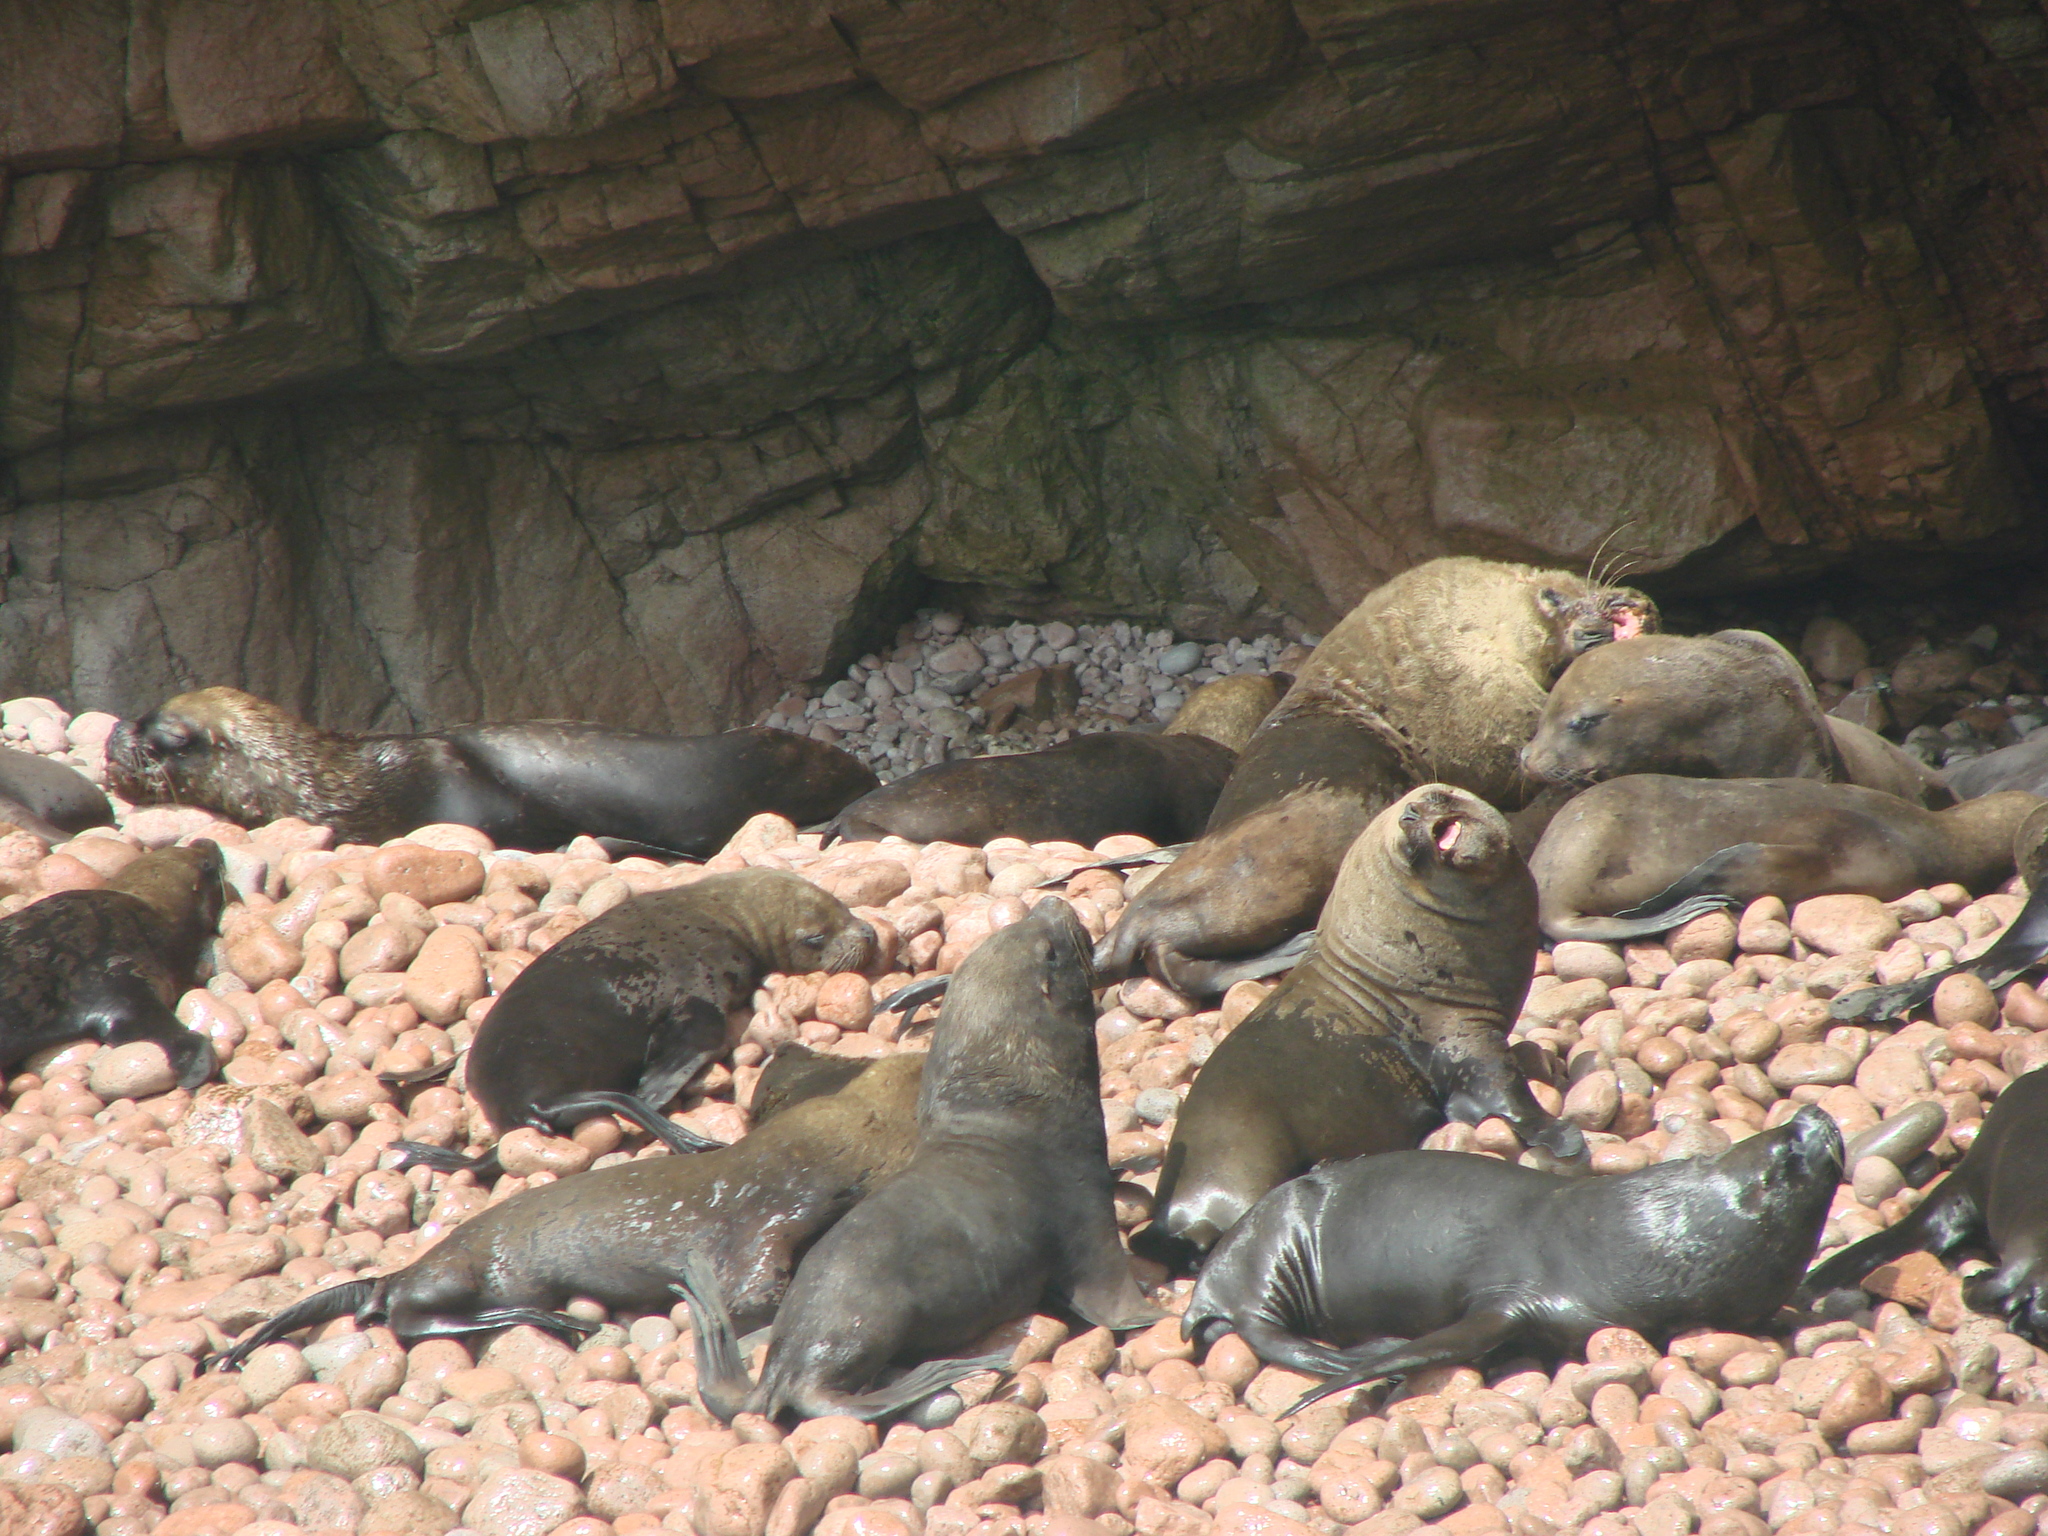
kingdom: Animalia
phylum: Chordata
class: Mammalia
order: Carnivora
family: Otariidae
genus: Otaria
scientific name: Otaria byronia
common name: South american sea lion
